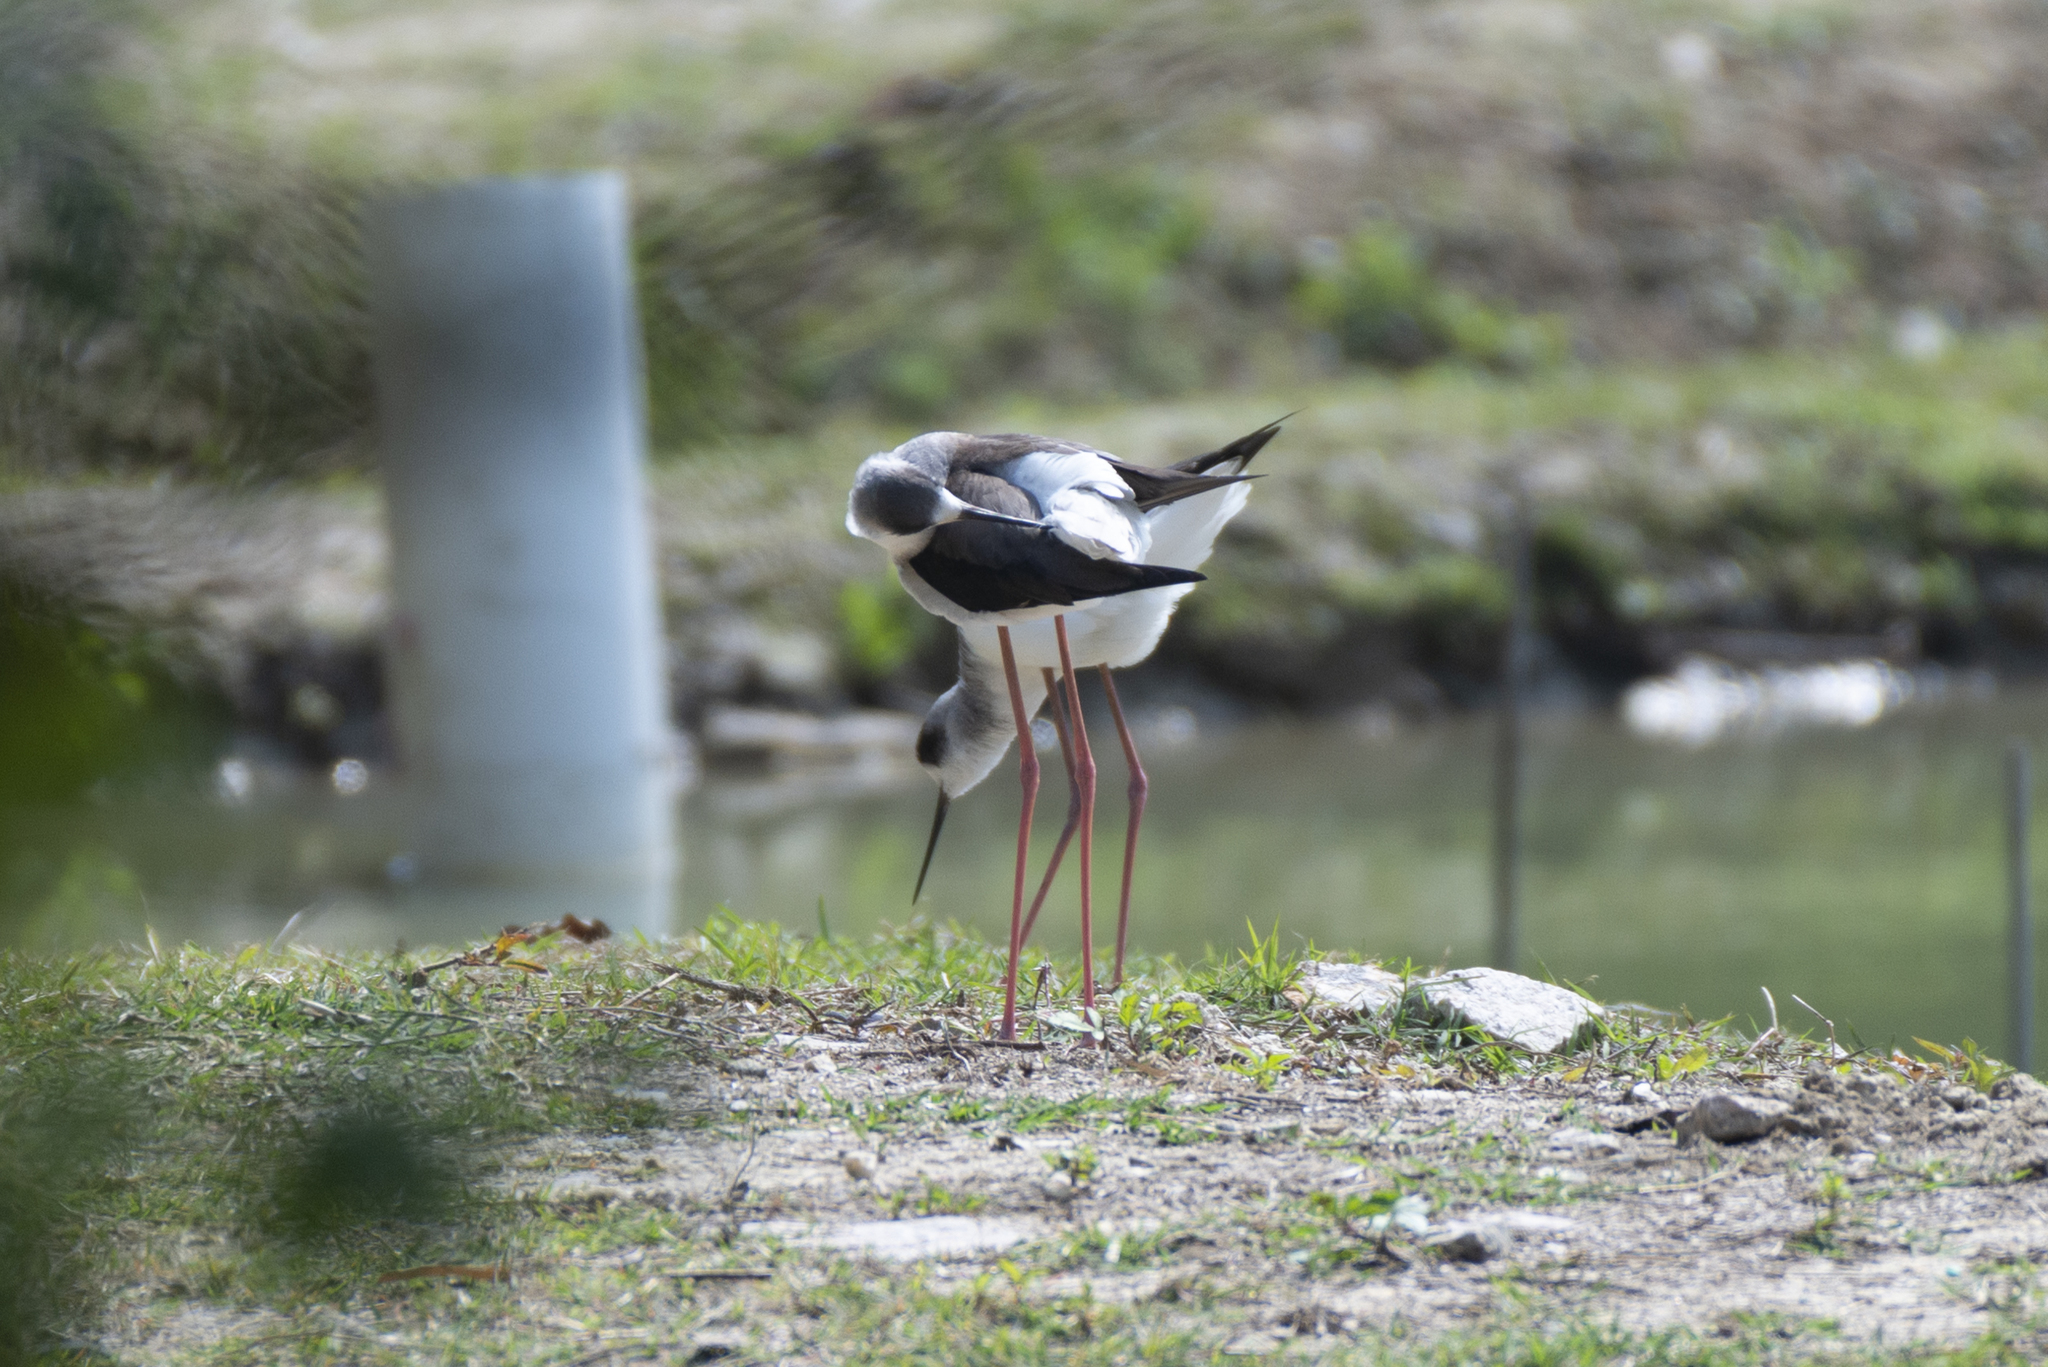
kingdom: Animalia
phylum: Chordata
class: Aves
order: Charadriiformes
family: Recurvirostridae
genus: Himantopus
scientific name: Himantopus himantopus
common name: Black-winged stilt
